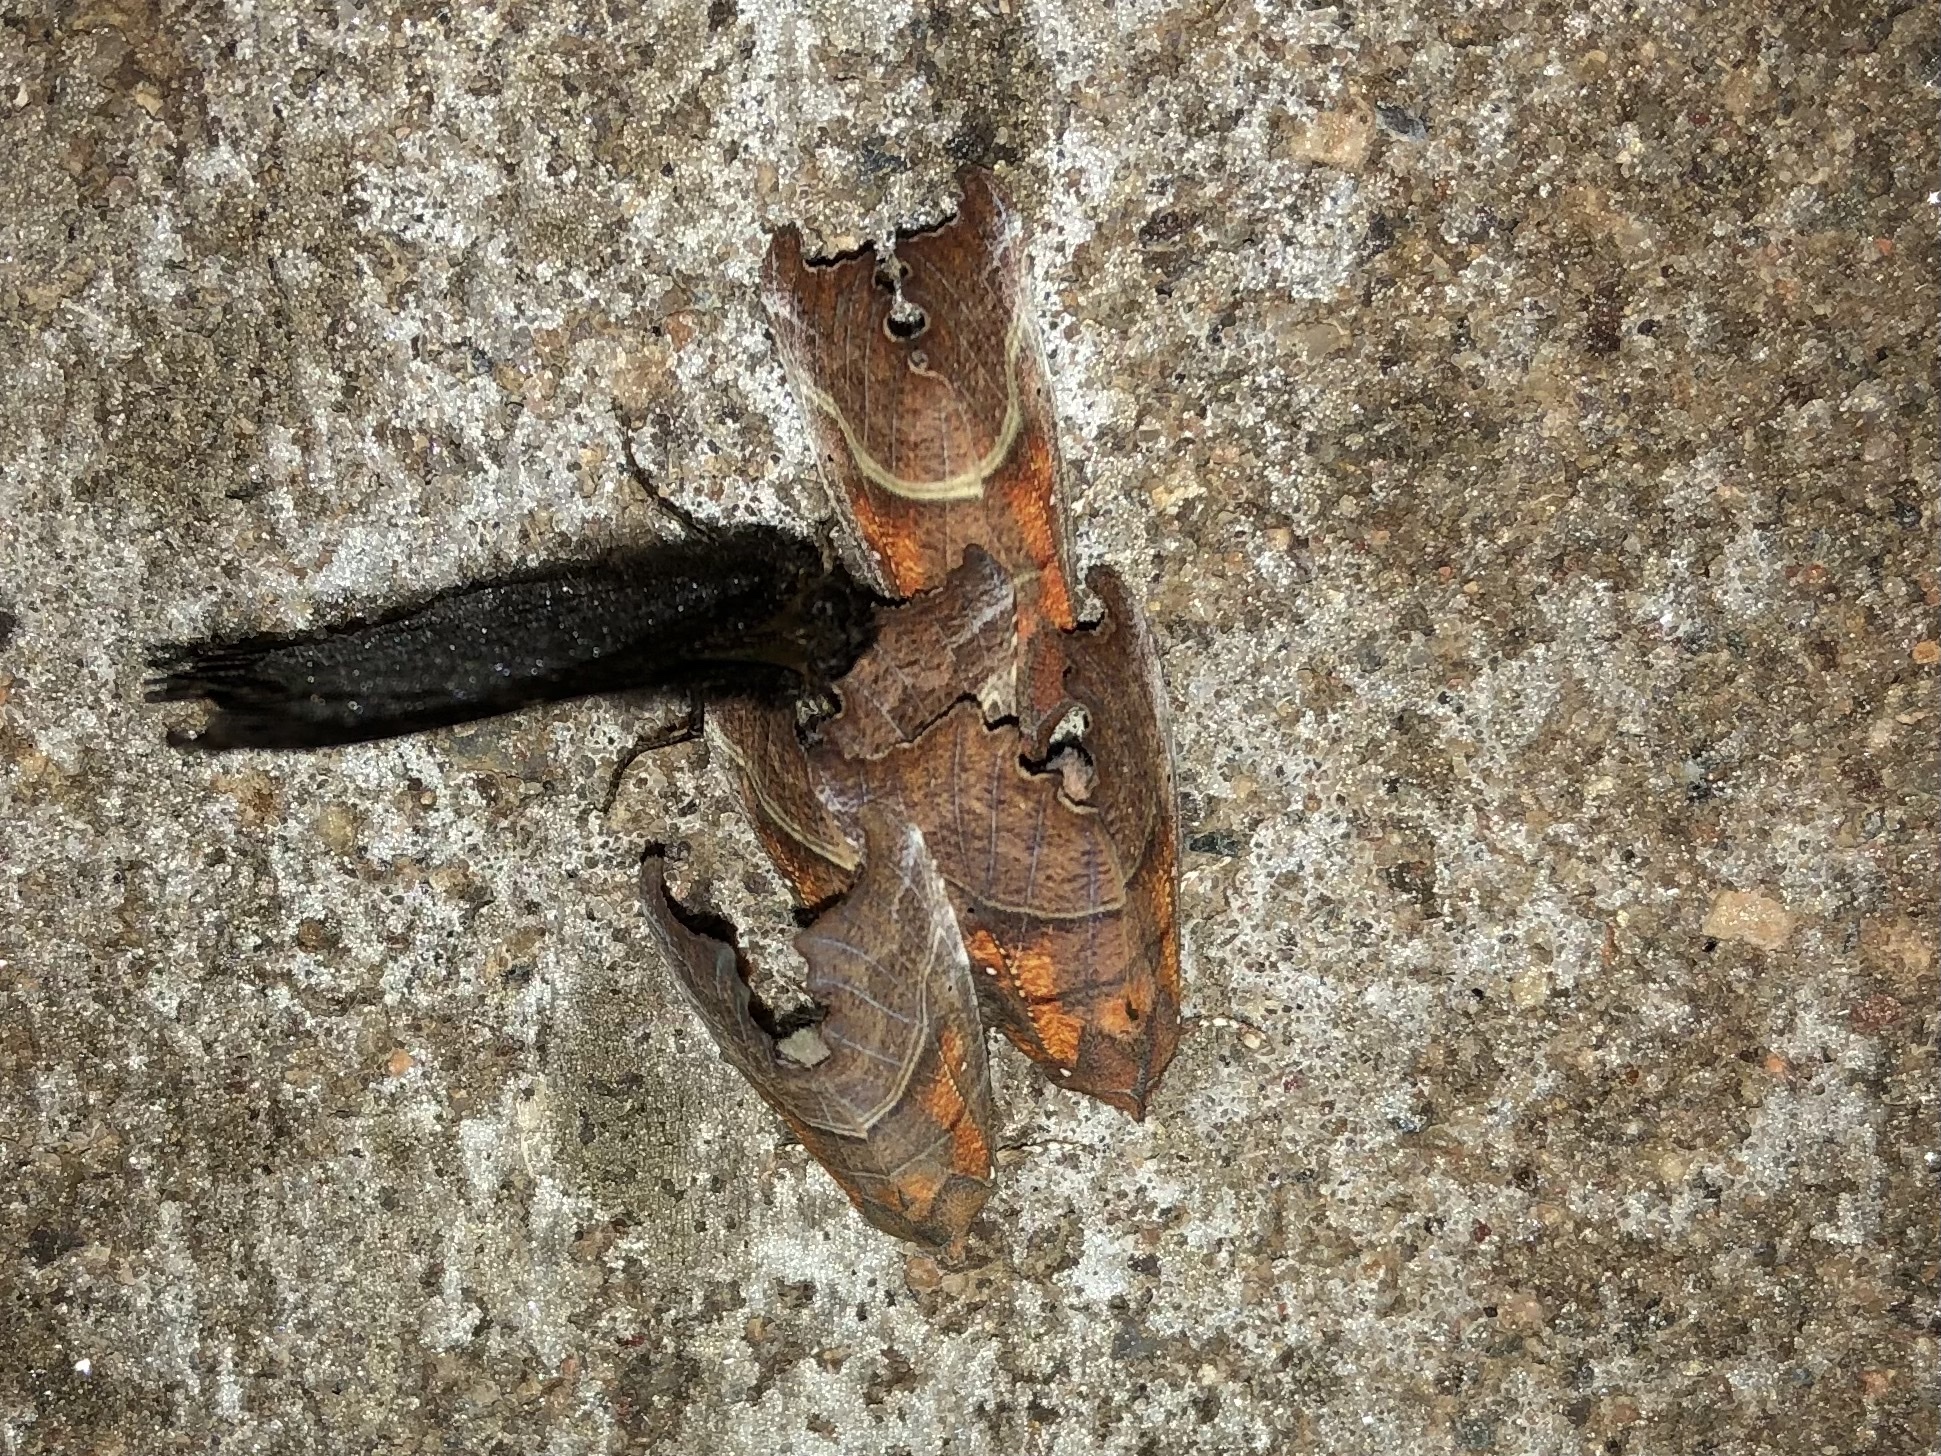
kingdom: Animalia
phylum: Arthropoda
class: Insecta
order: Lepidoptera
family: Erebidae
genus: Scoliopteryx
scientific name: Scoliopteryx libatrix
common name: Herald
